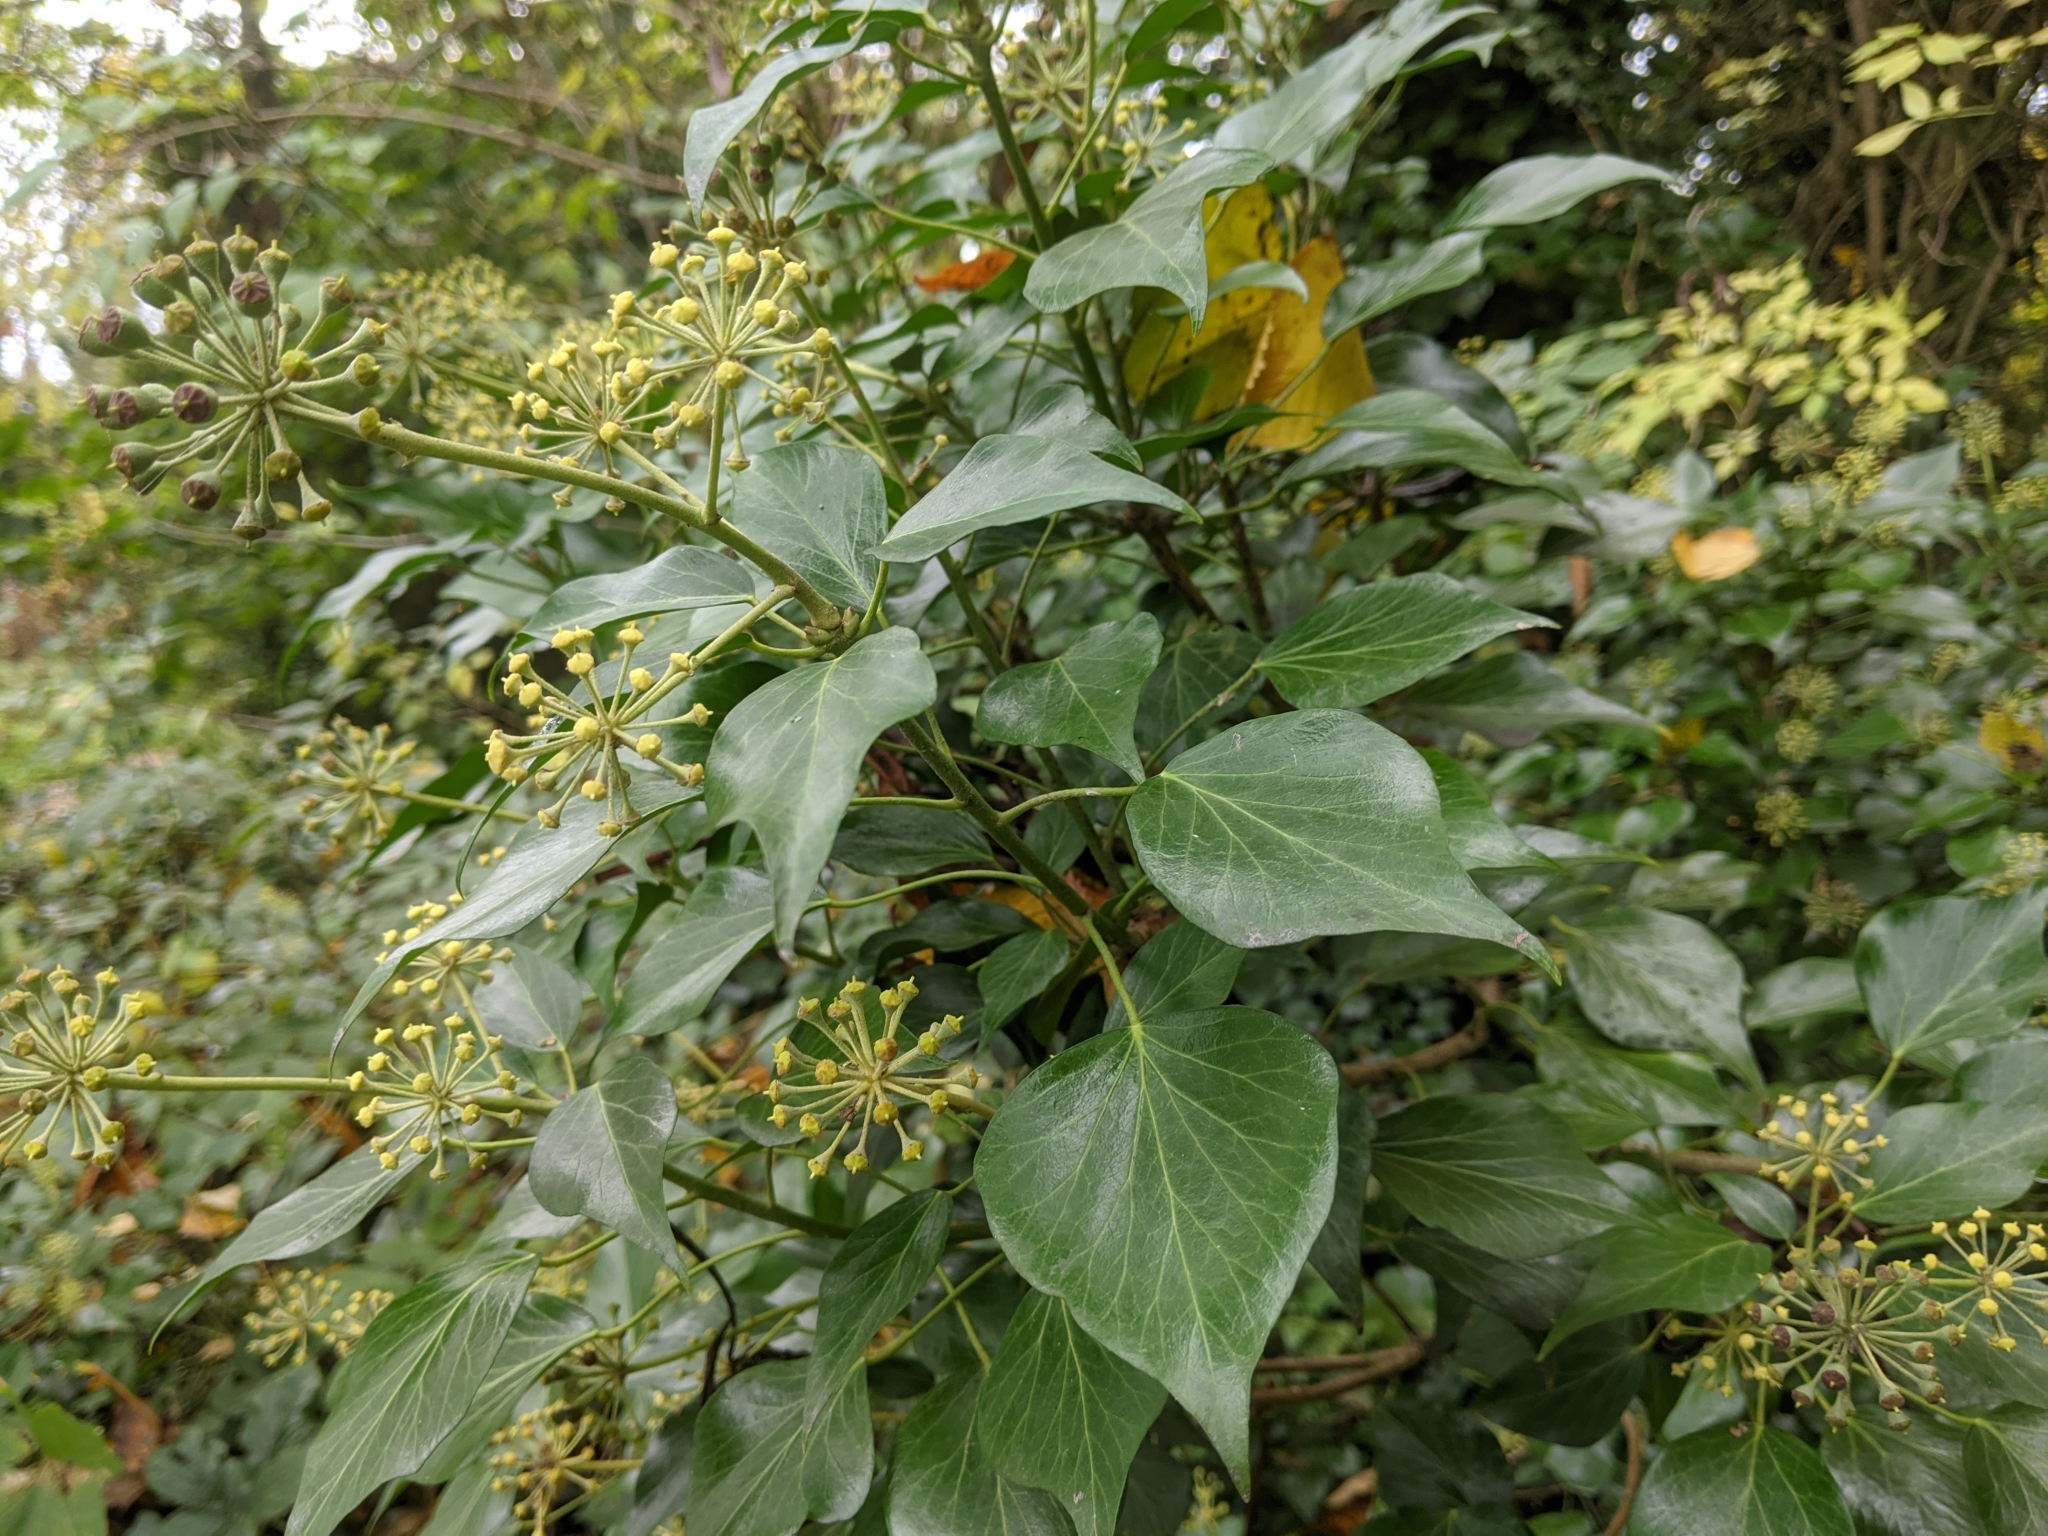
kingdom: Plantae
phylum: Tracheophyta
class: Magnoliopsida
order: Apiales
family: Araliaceae
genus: Hedera
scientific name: Hedera helix
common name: Ivy
